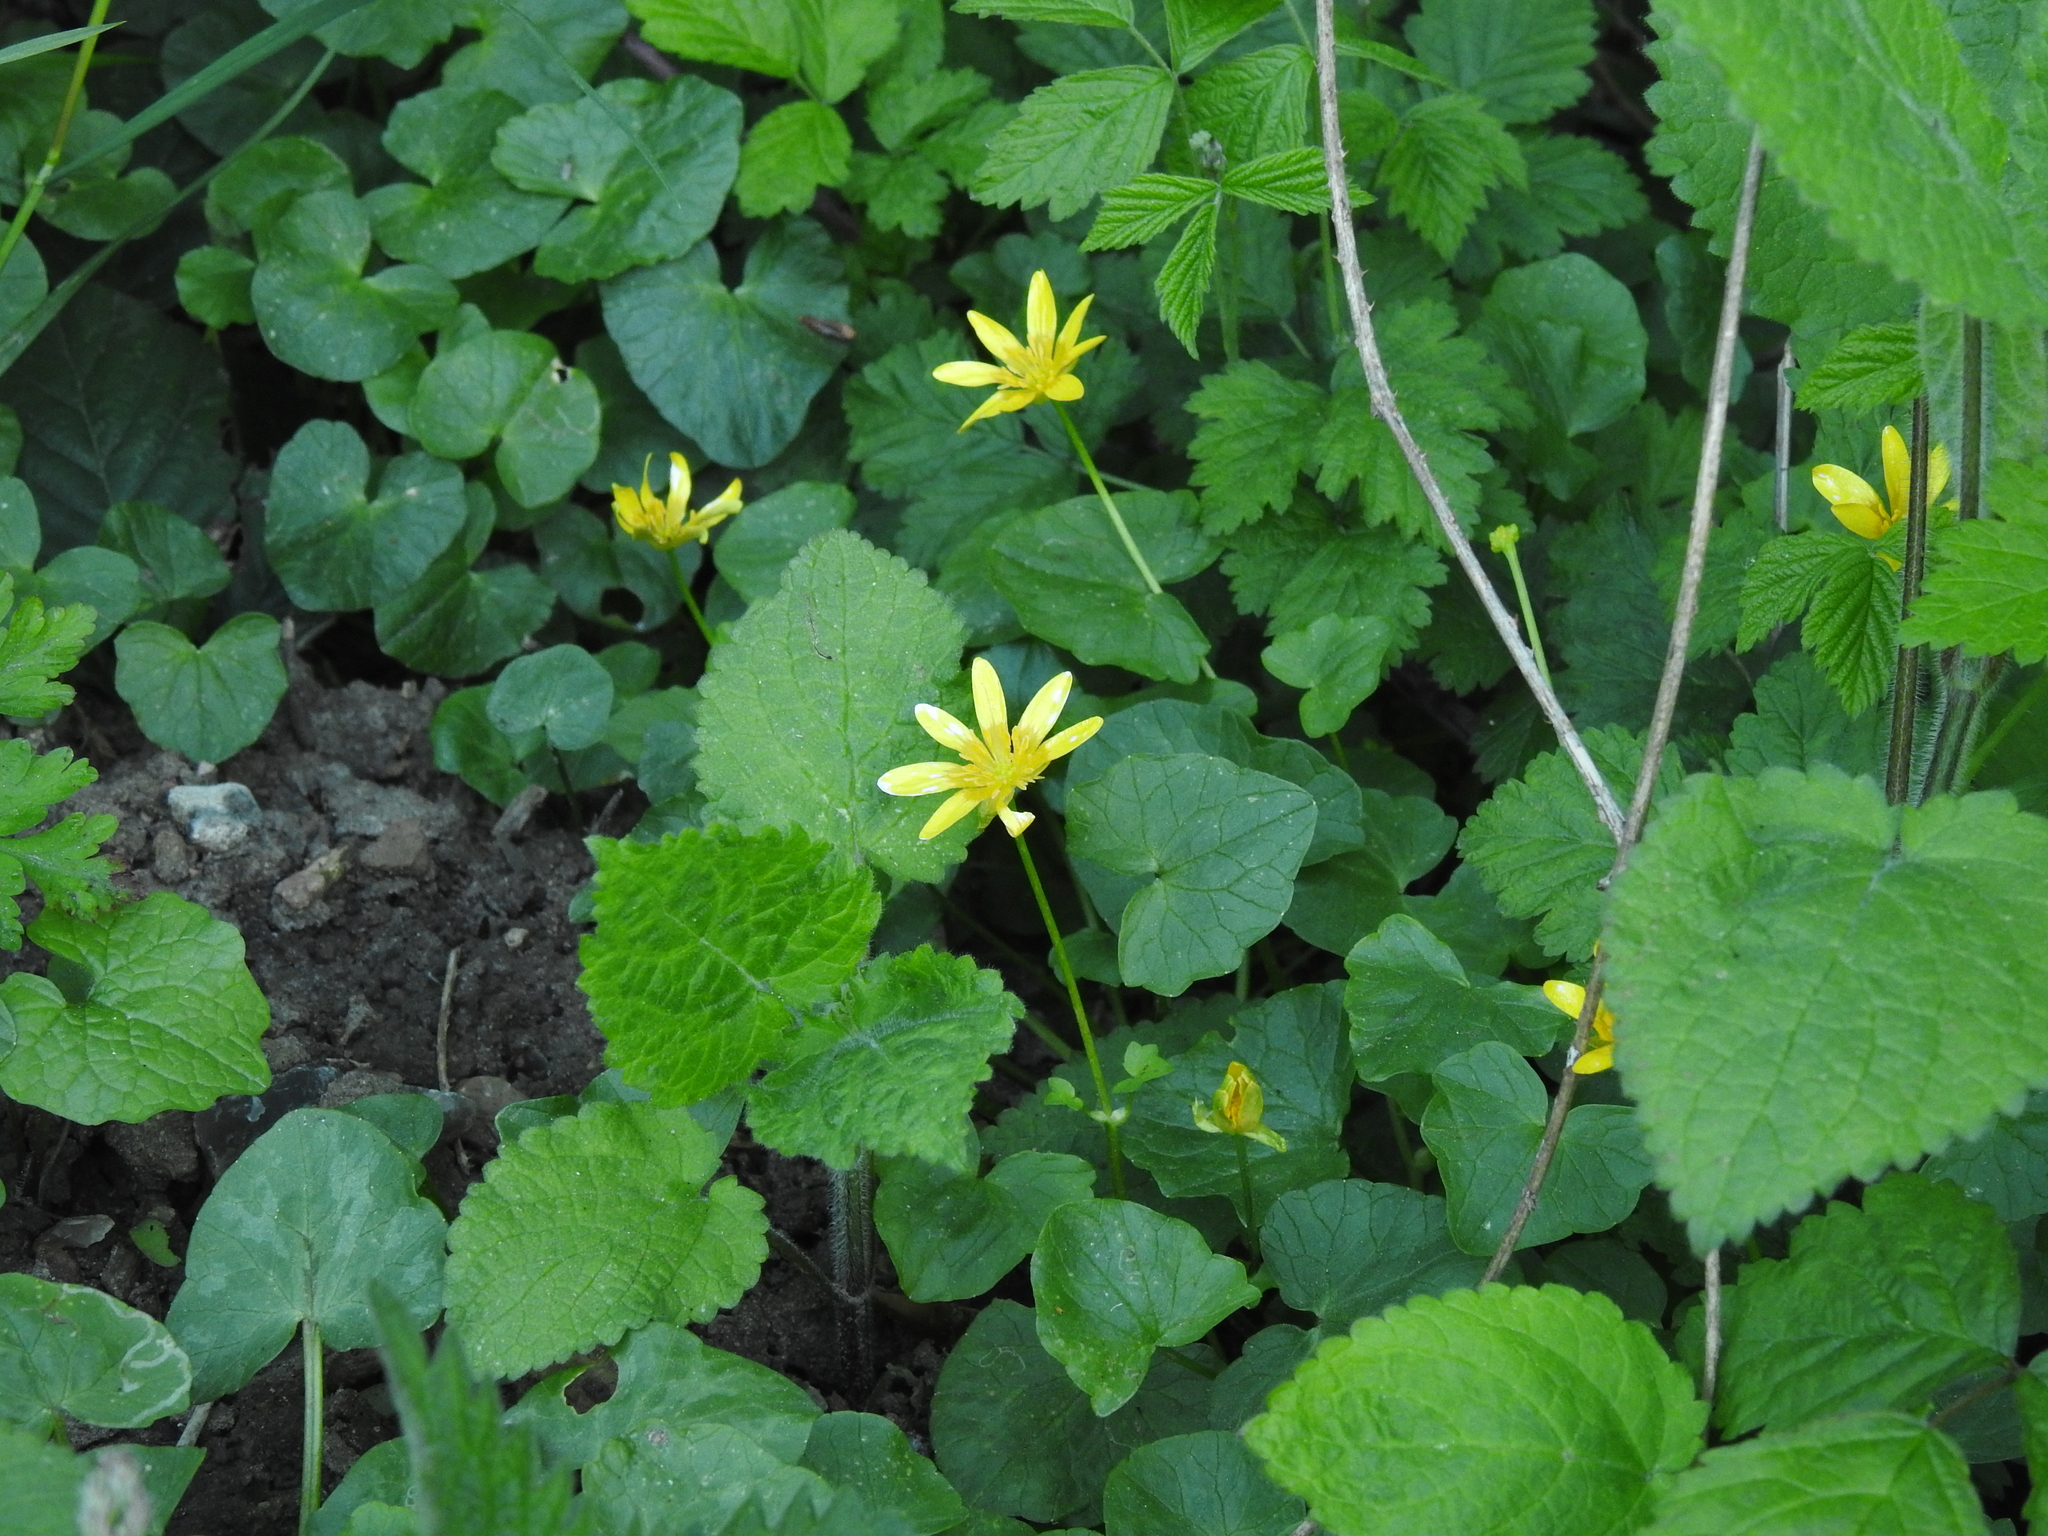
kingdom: Plantae
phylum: Tracheophyta
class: Magnoliopsida
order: Ranunculales
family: Ranunculaceae
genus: Ficaria
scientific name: Ficaria verna
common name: Lesser celandine
